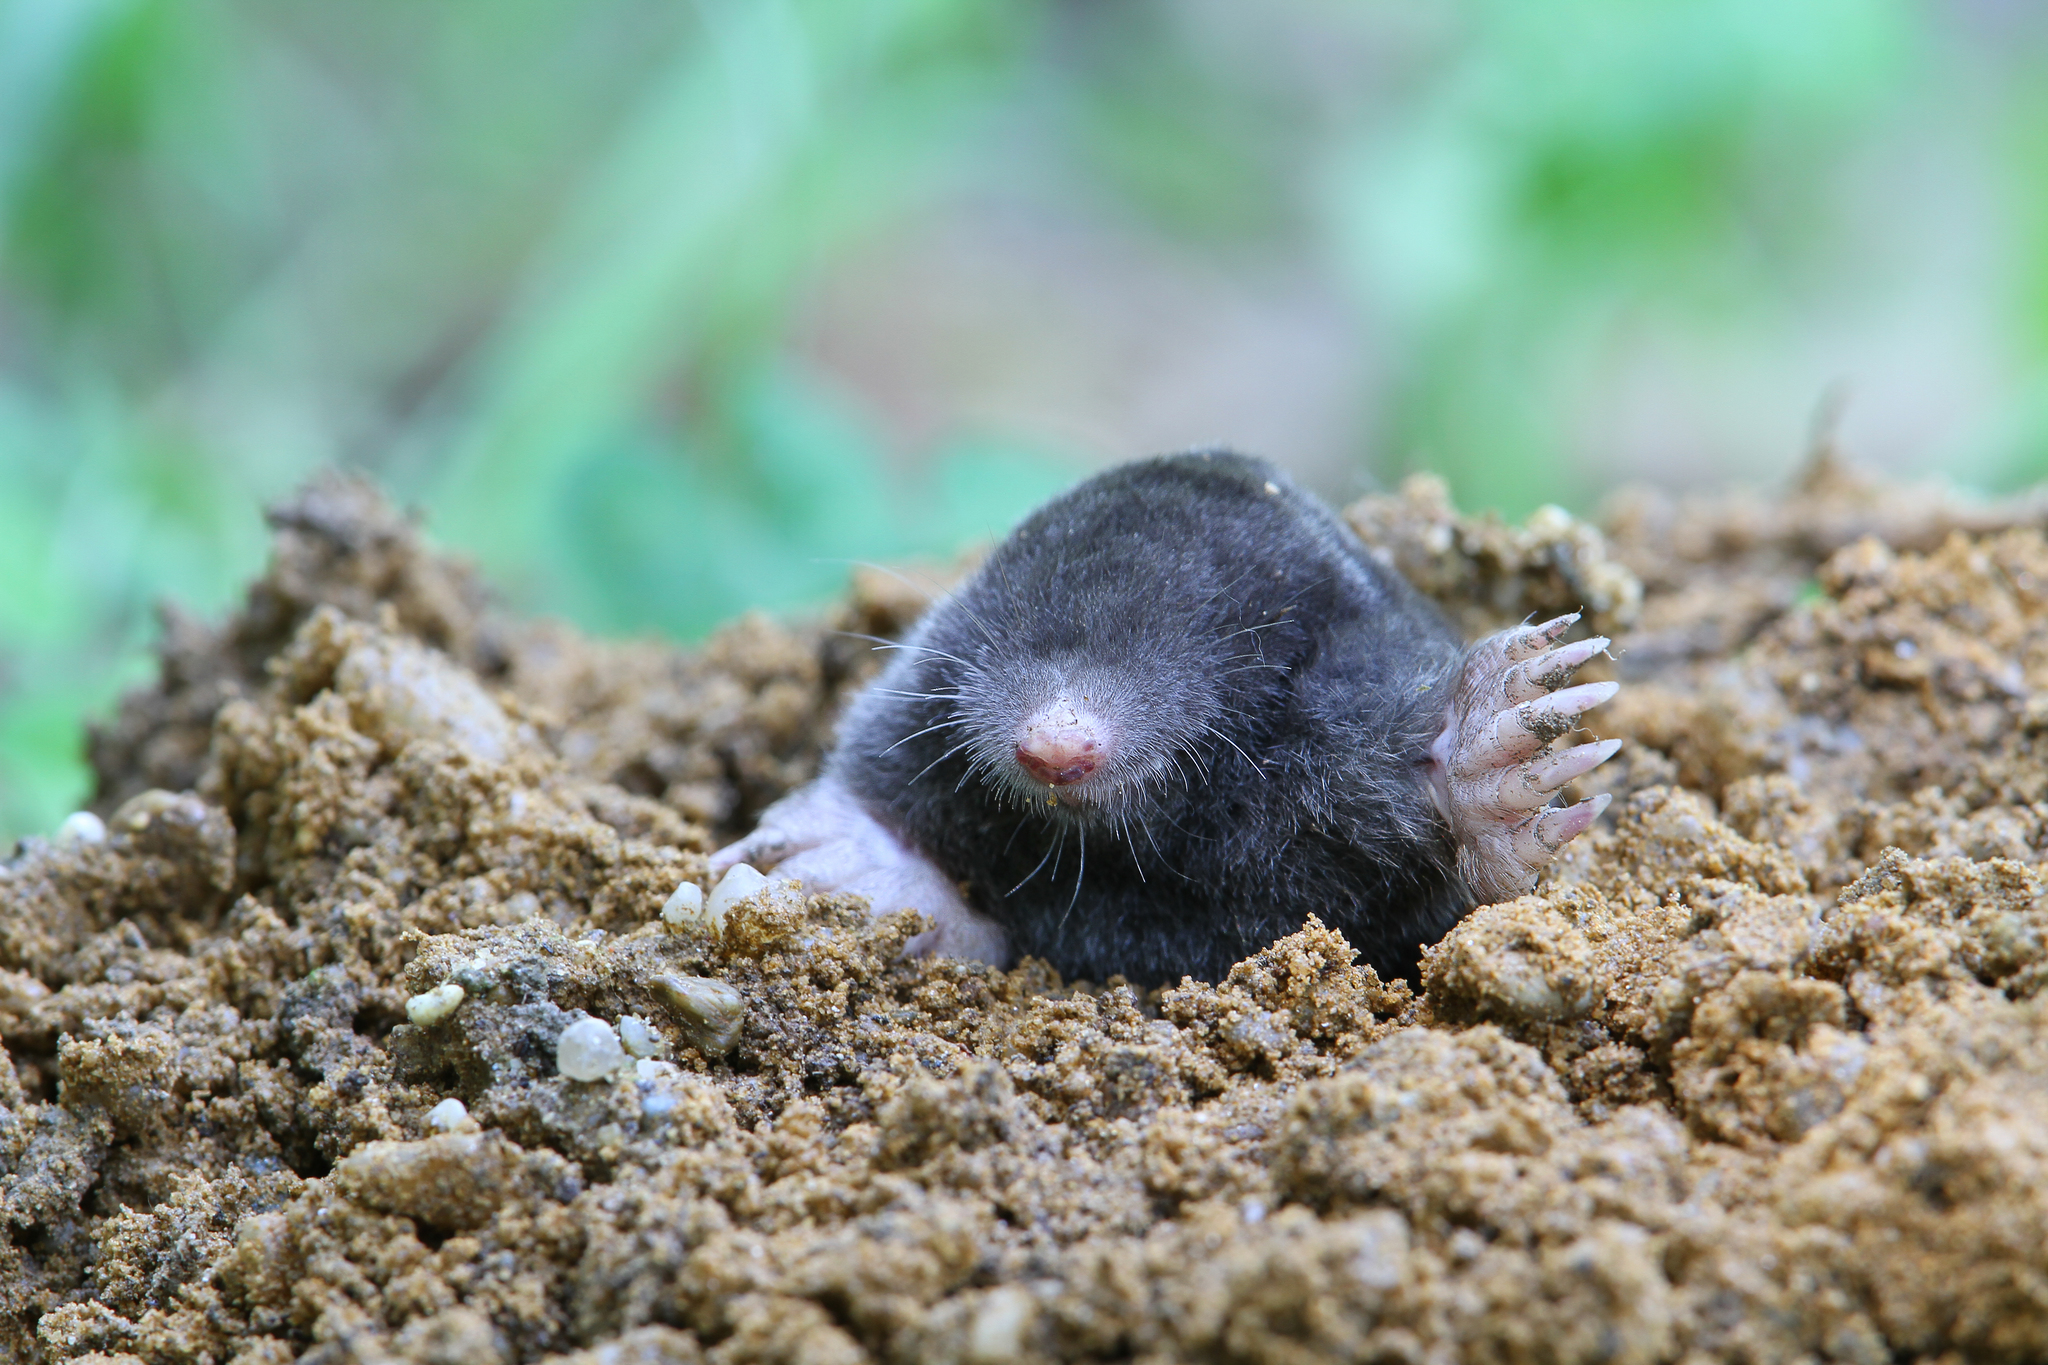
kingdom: Animalia
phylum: Chordata
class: Mammalia
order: Soricomorpha
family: Talpidae
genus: Talpa
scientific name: Talpa europaea
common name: European mole
